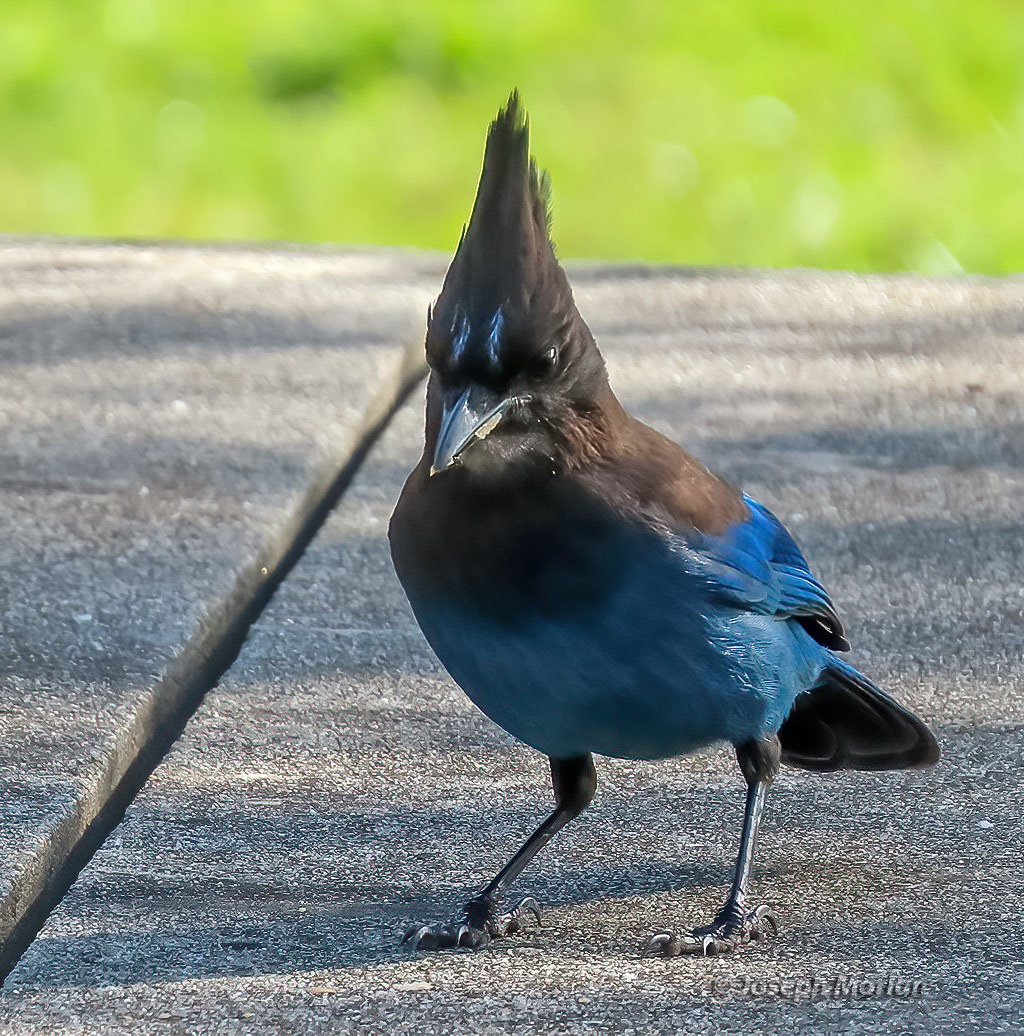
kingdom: Animalia
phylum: Chordata
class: Aves
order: Passeriformes
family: Corvidae
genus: Cyanocitta
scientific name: Cyanocitta stelleri
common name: Steller's jay
